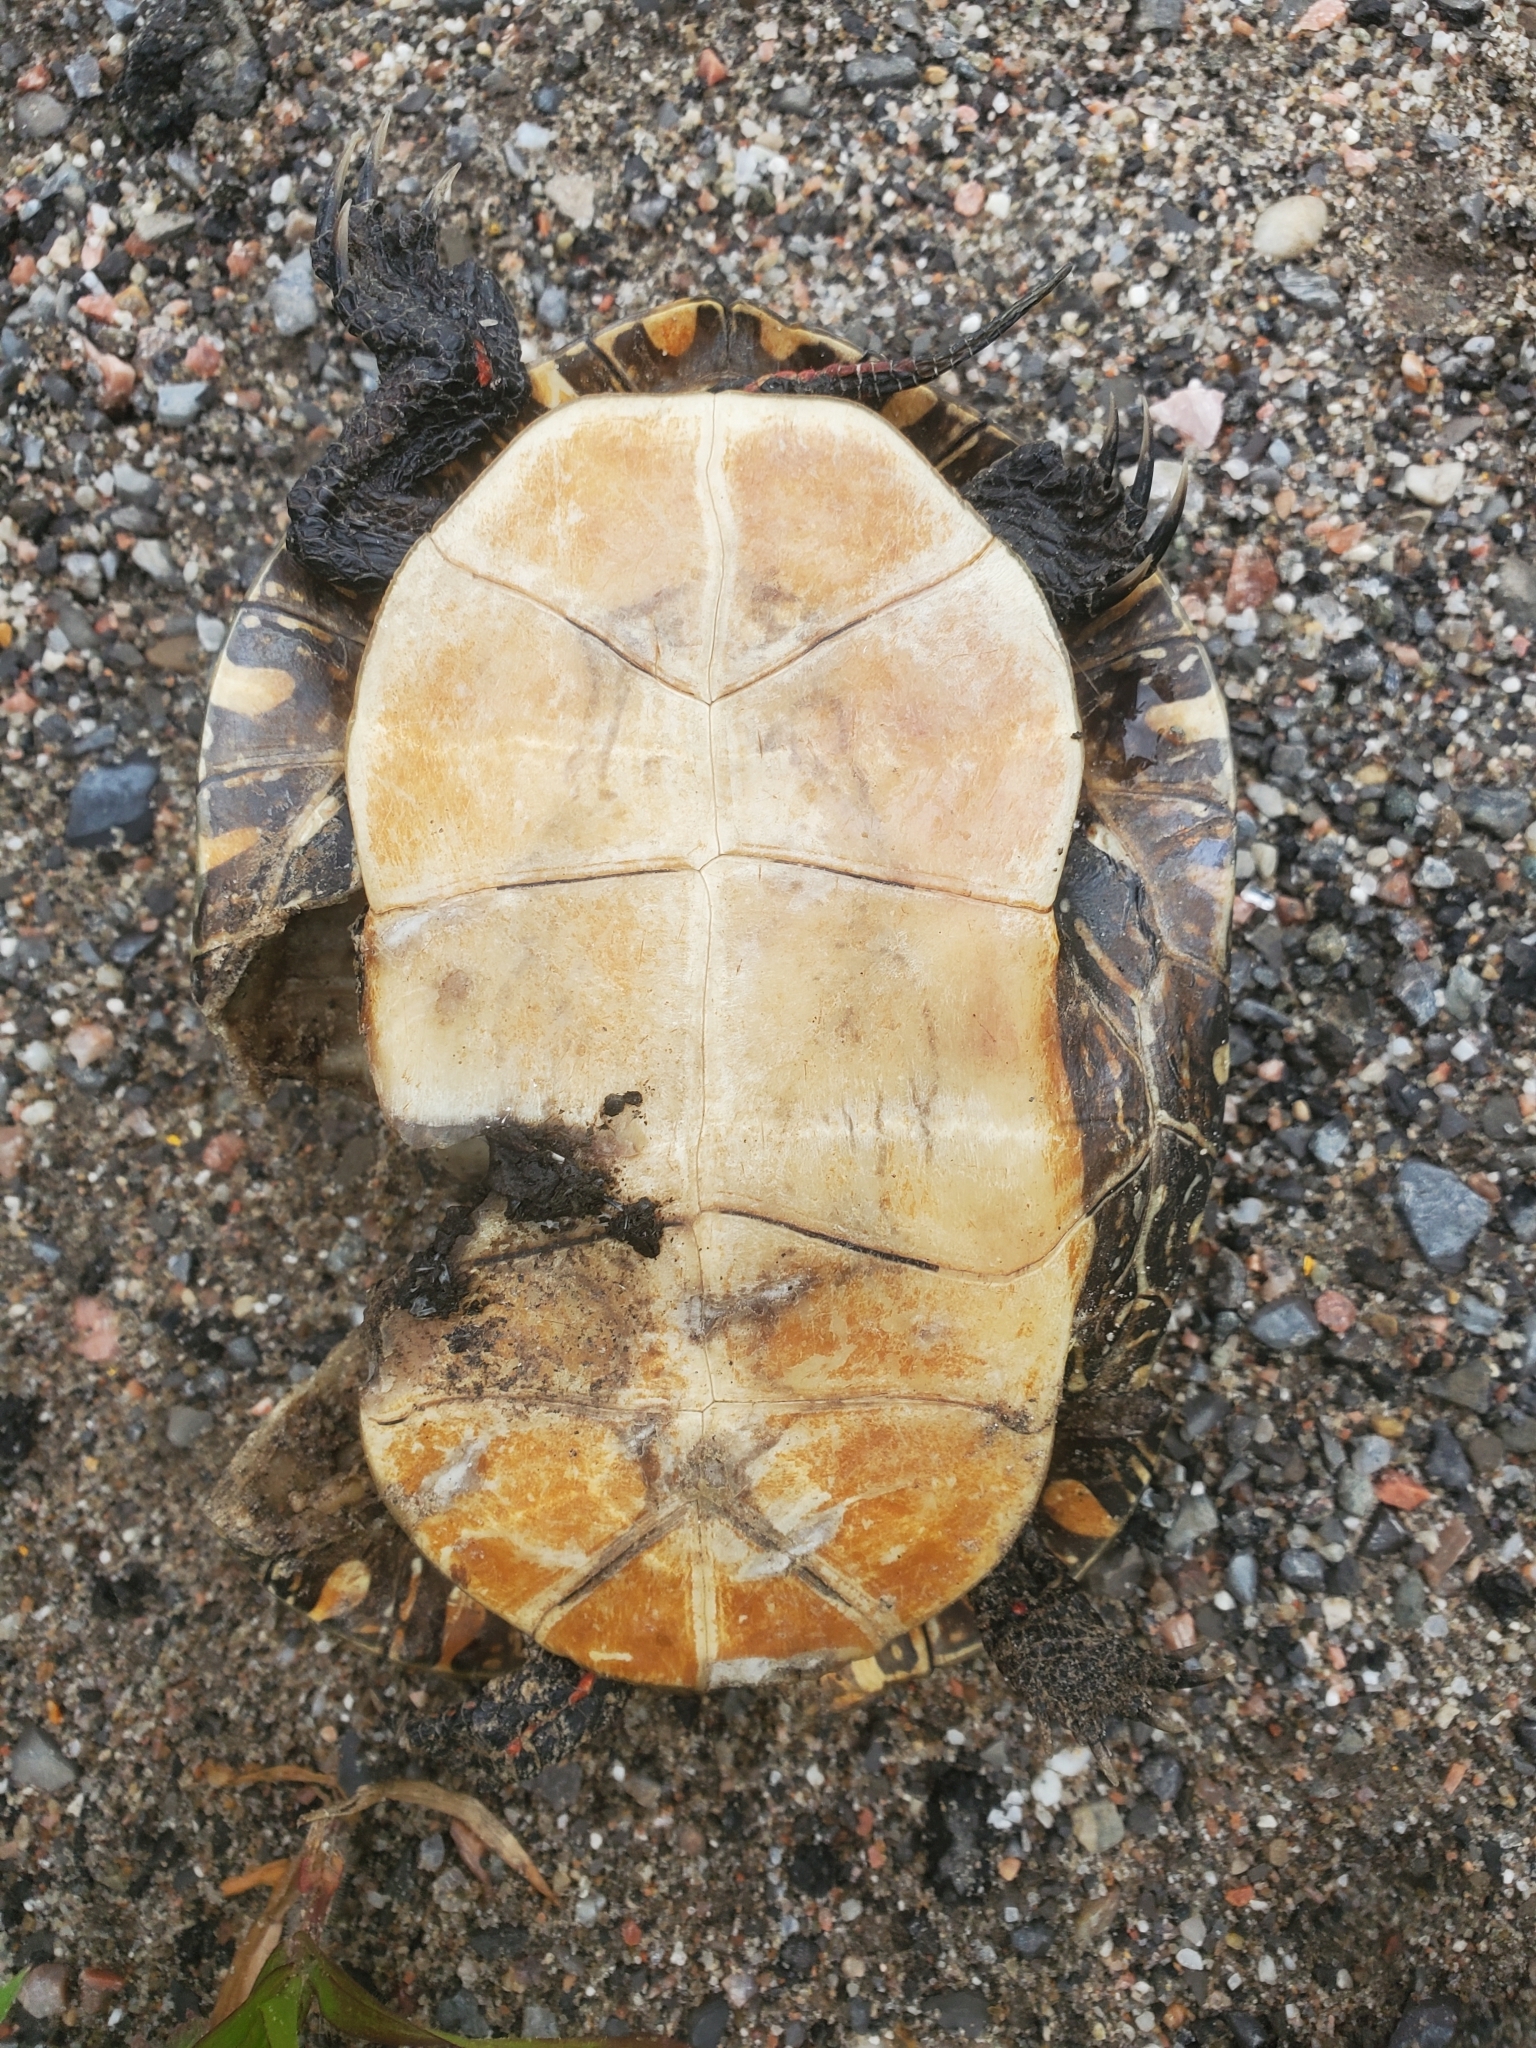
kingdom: Animalia
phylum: Chordata
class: Testudines
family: Emydidae
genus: Chrysemys
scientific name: Chrysemys picta
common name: Painted turtle
